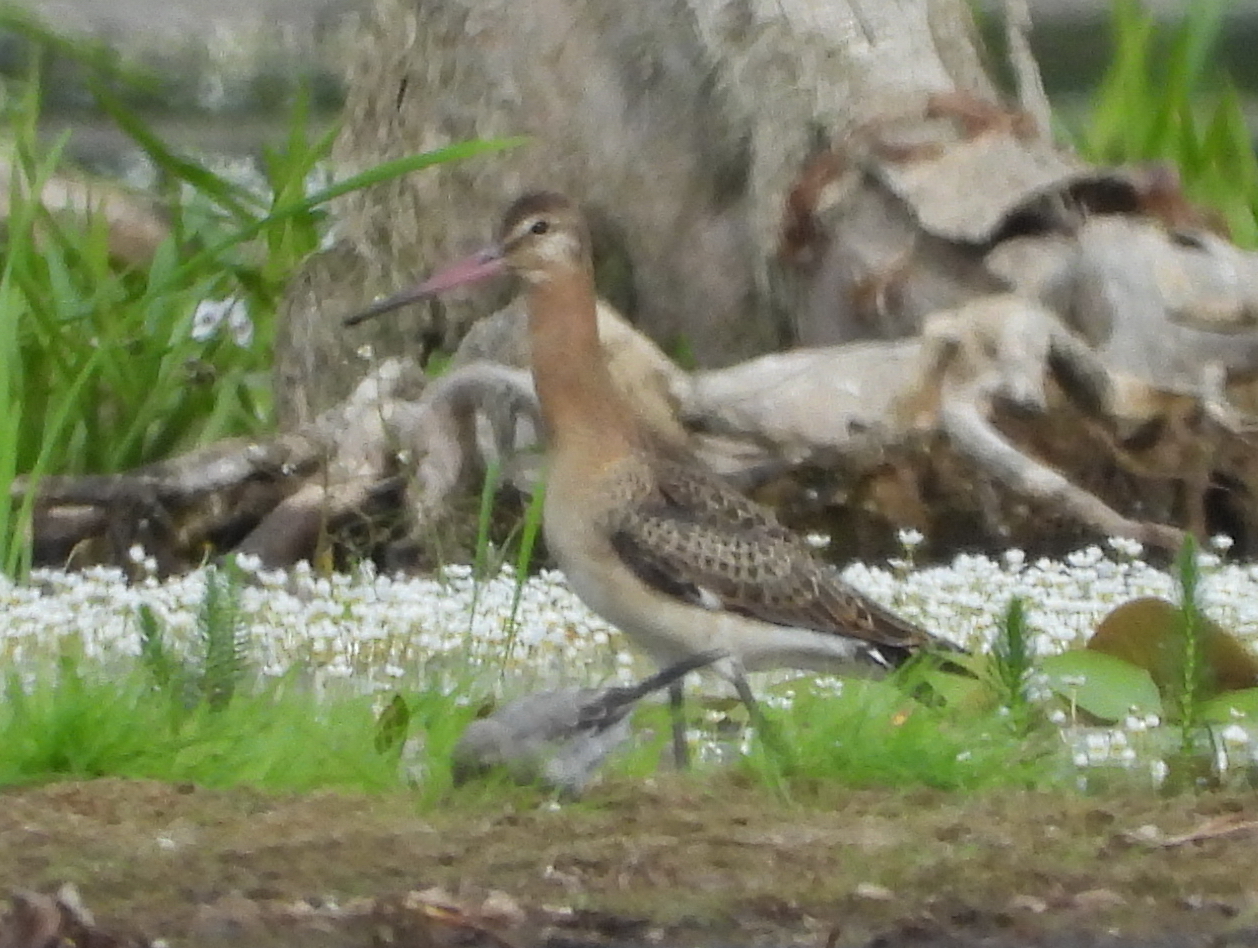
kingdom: Animalia
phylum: Chordata
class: Aves
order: Charadriiformes
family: Scolopacidae
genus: Limosa
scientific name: Limosa limosa
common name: Black-tailed godwit
